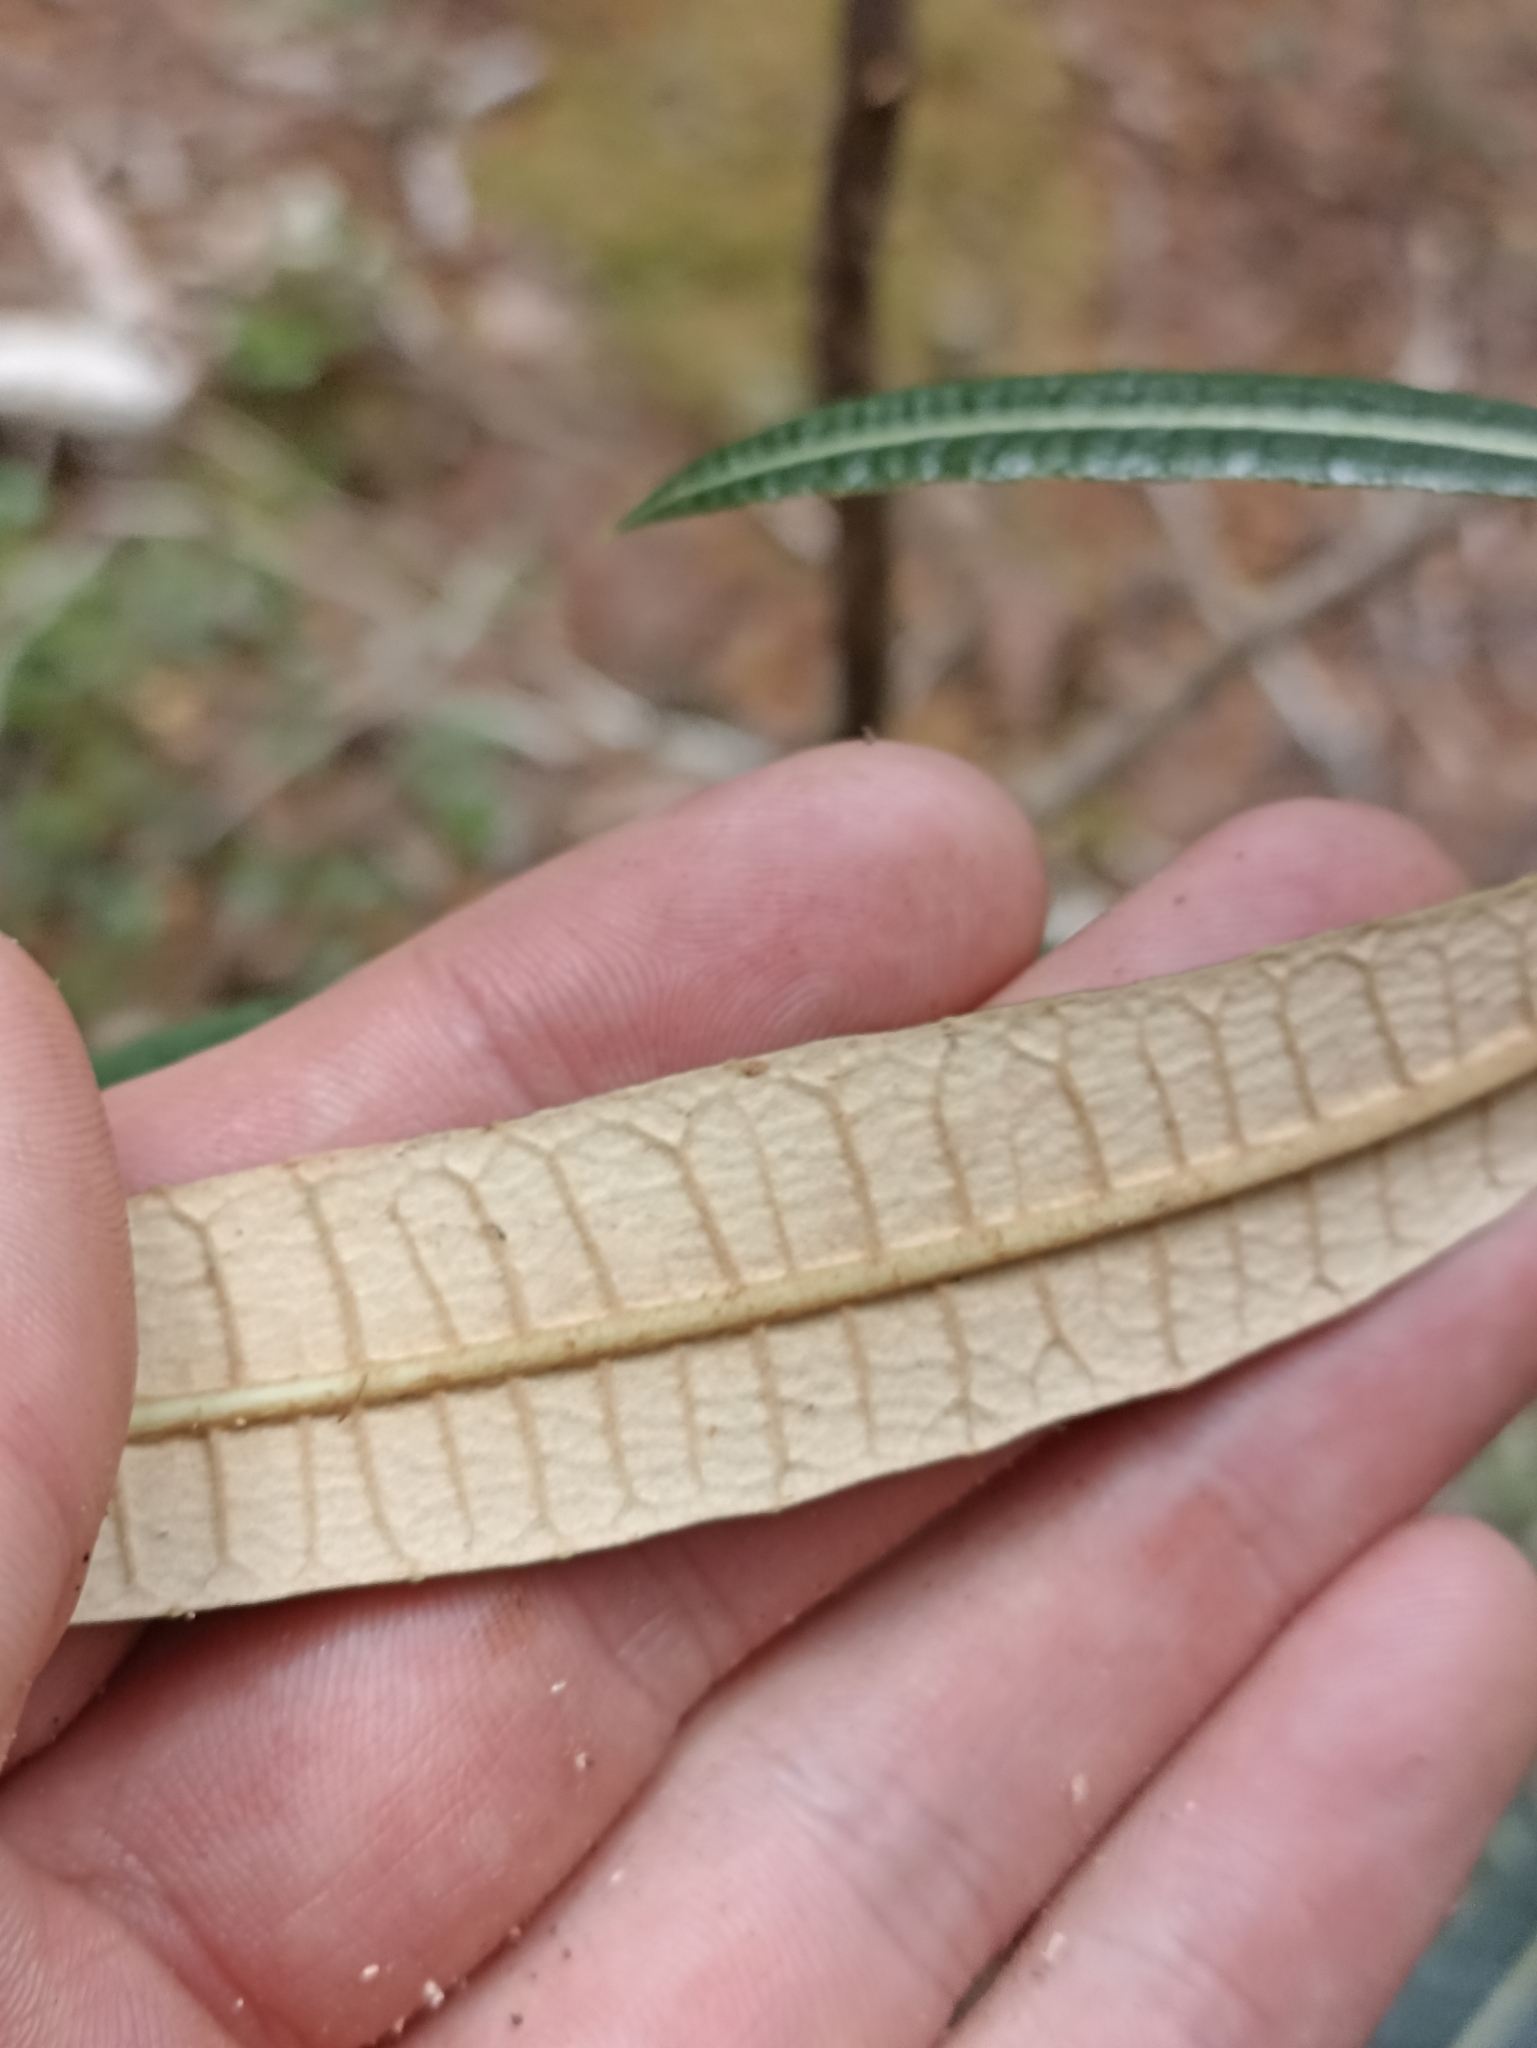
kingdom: Plantae
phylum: Tracheophyta
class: Magnoliopsida
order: Asterales
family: Asteraceae
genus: Olearia
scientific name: Olearia lacunosa
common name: Lancewood tree daisy
